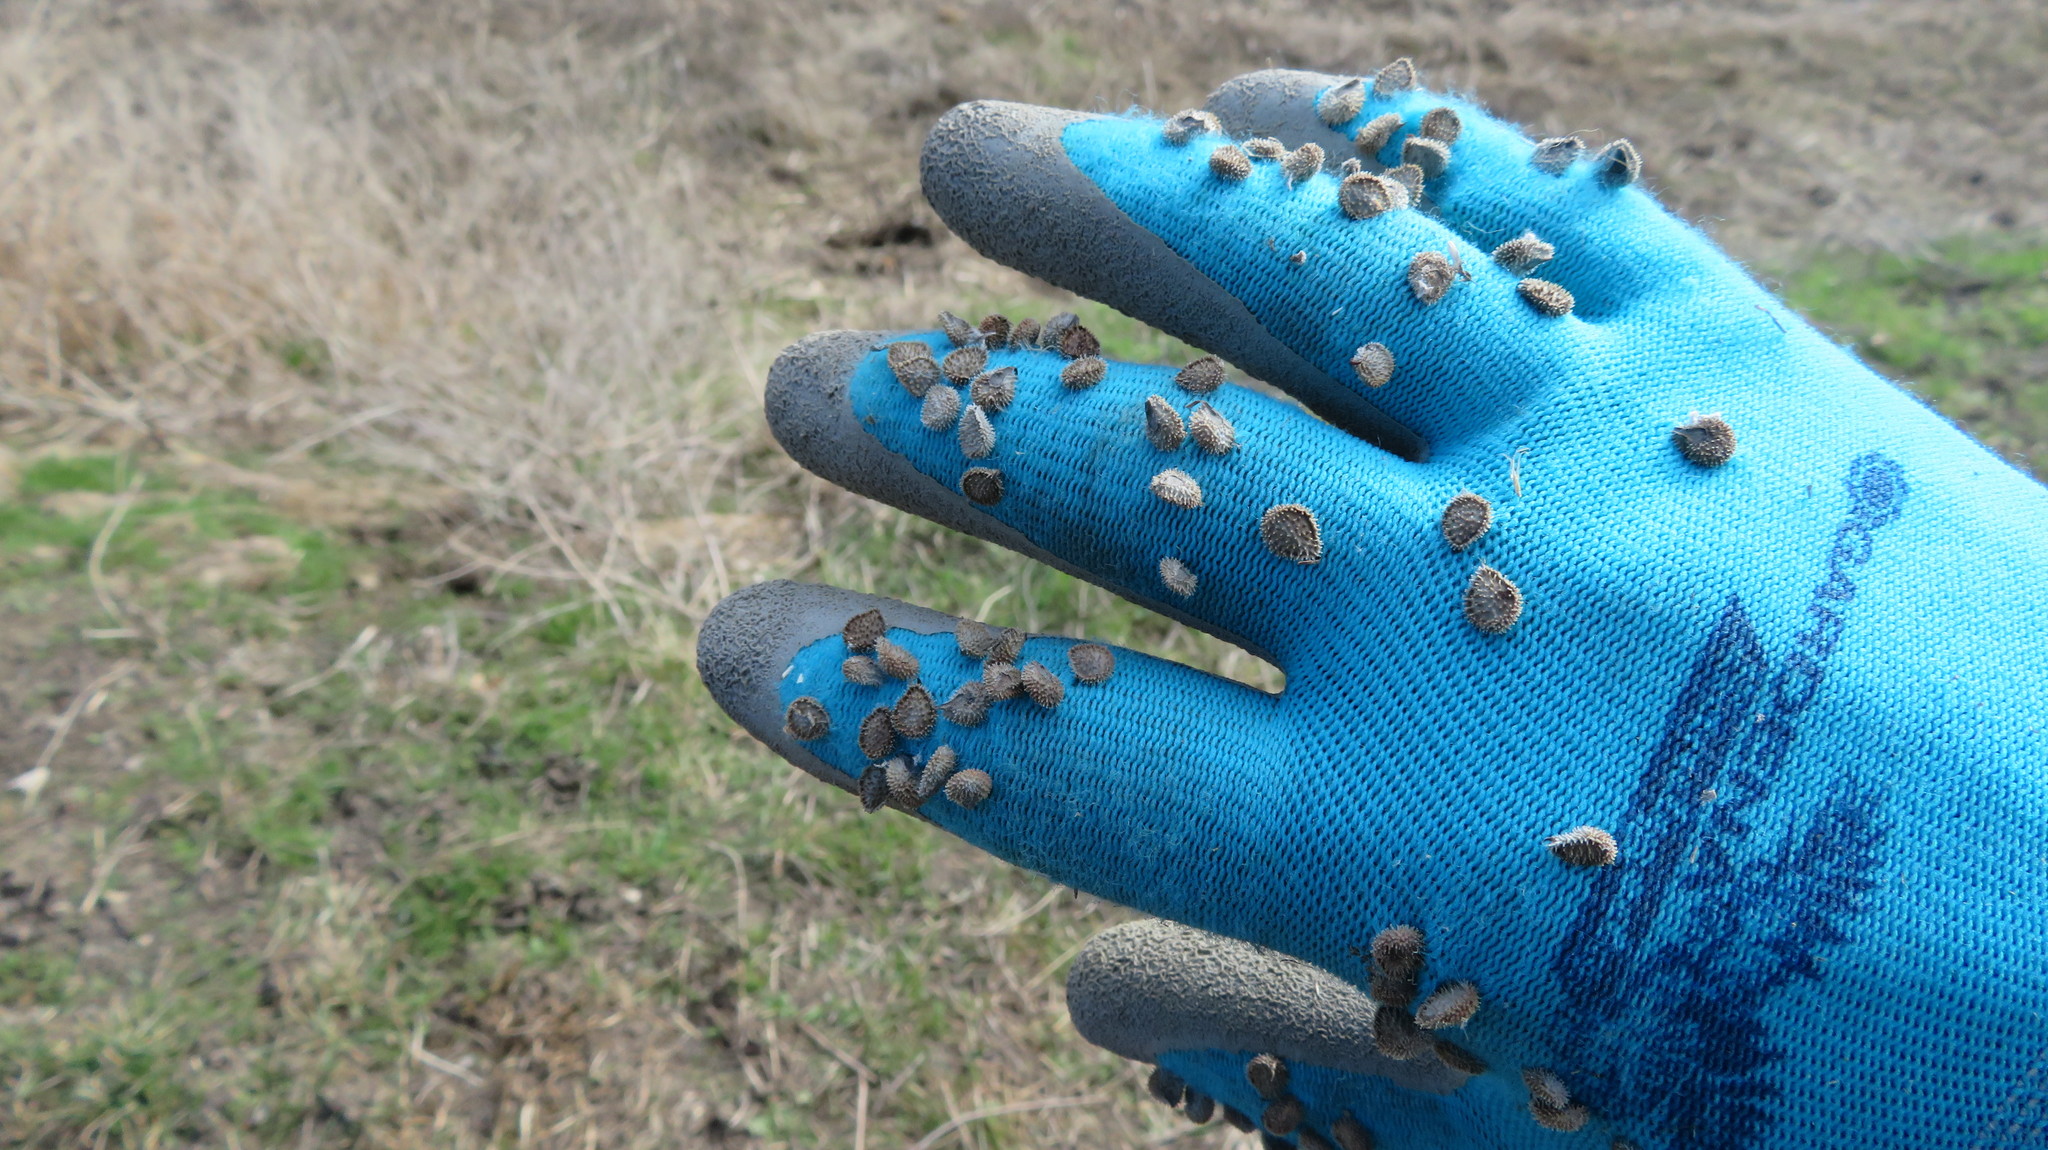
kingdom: Plantae
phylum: Tracheophyta
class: Magnoliopsida
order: Boraginales
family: Boraginaceae
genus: Cynoglossum
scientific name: Cynoglossum officinale
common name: Hound's-tongue
